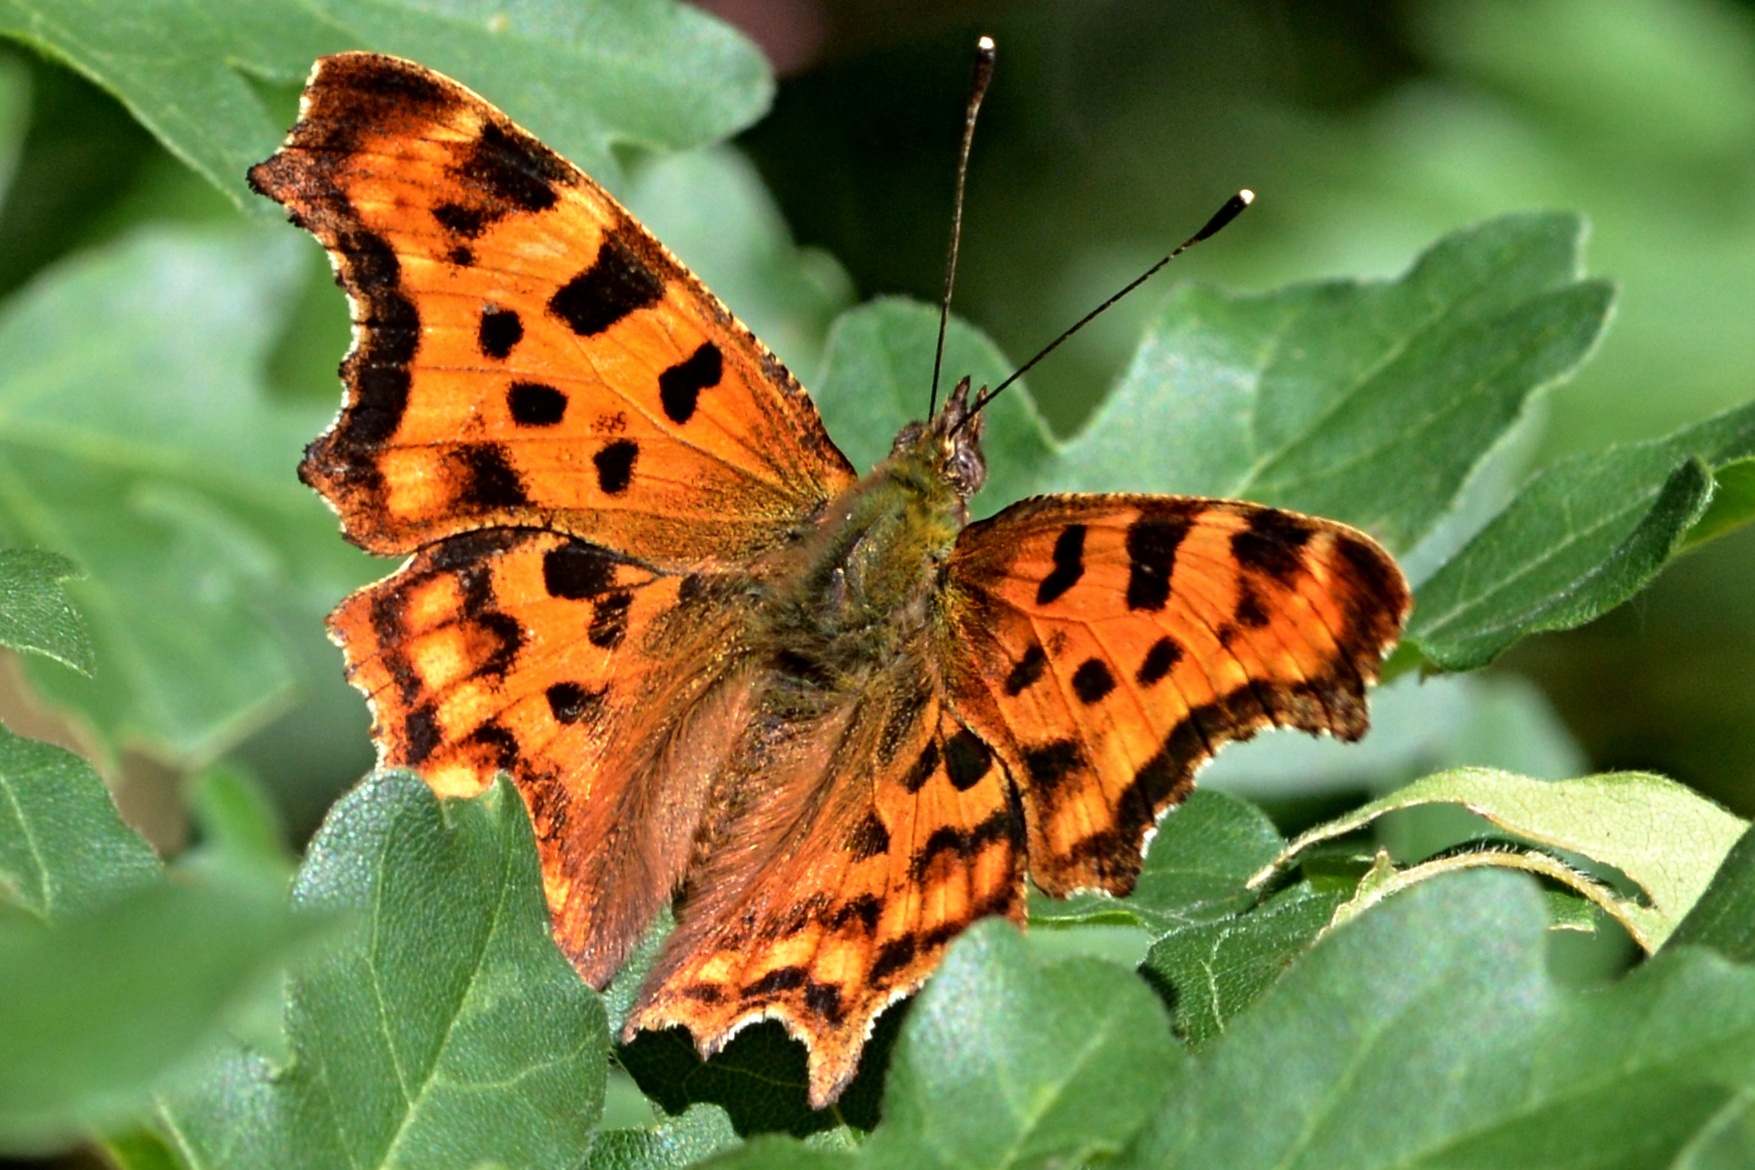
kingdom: Animalia
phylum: Arthropoda
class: Insecta
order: Lepidoptera
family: Nymphalidae
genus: Polygonia
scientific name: Polygonia c-album
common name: Comma
